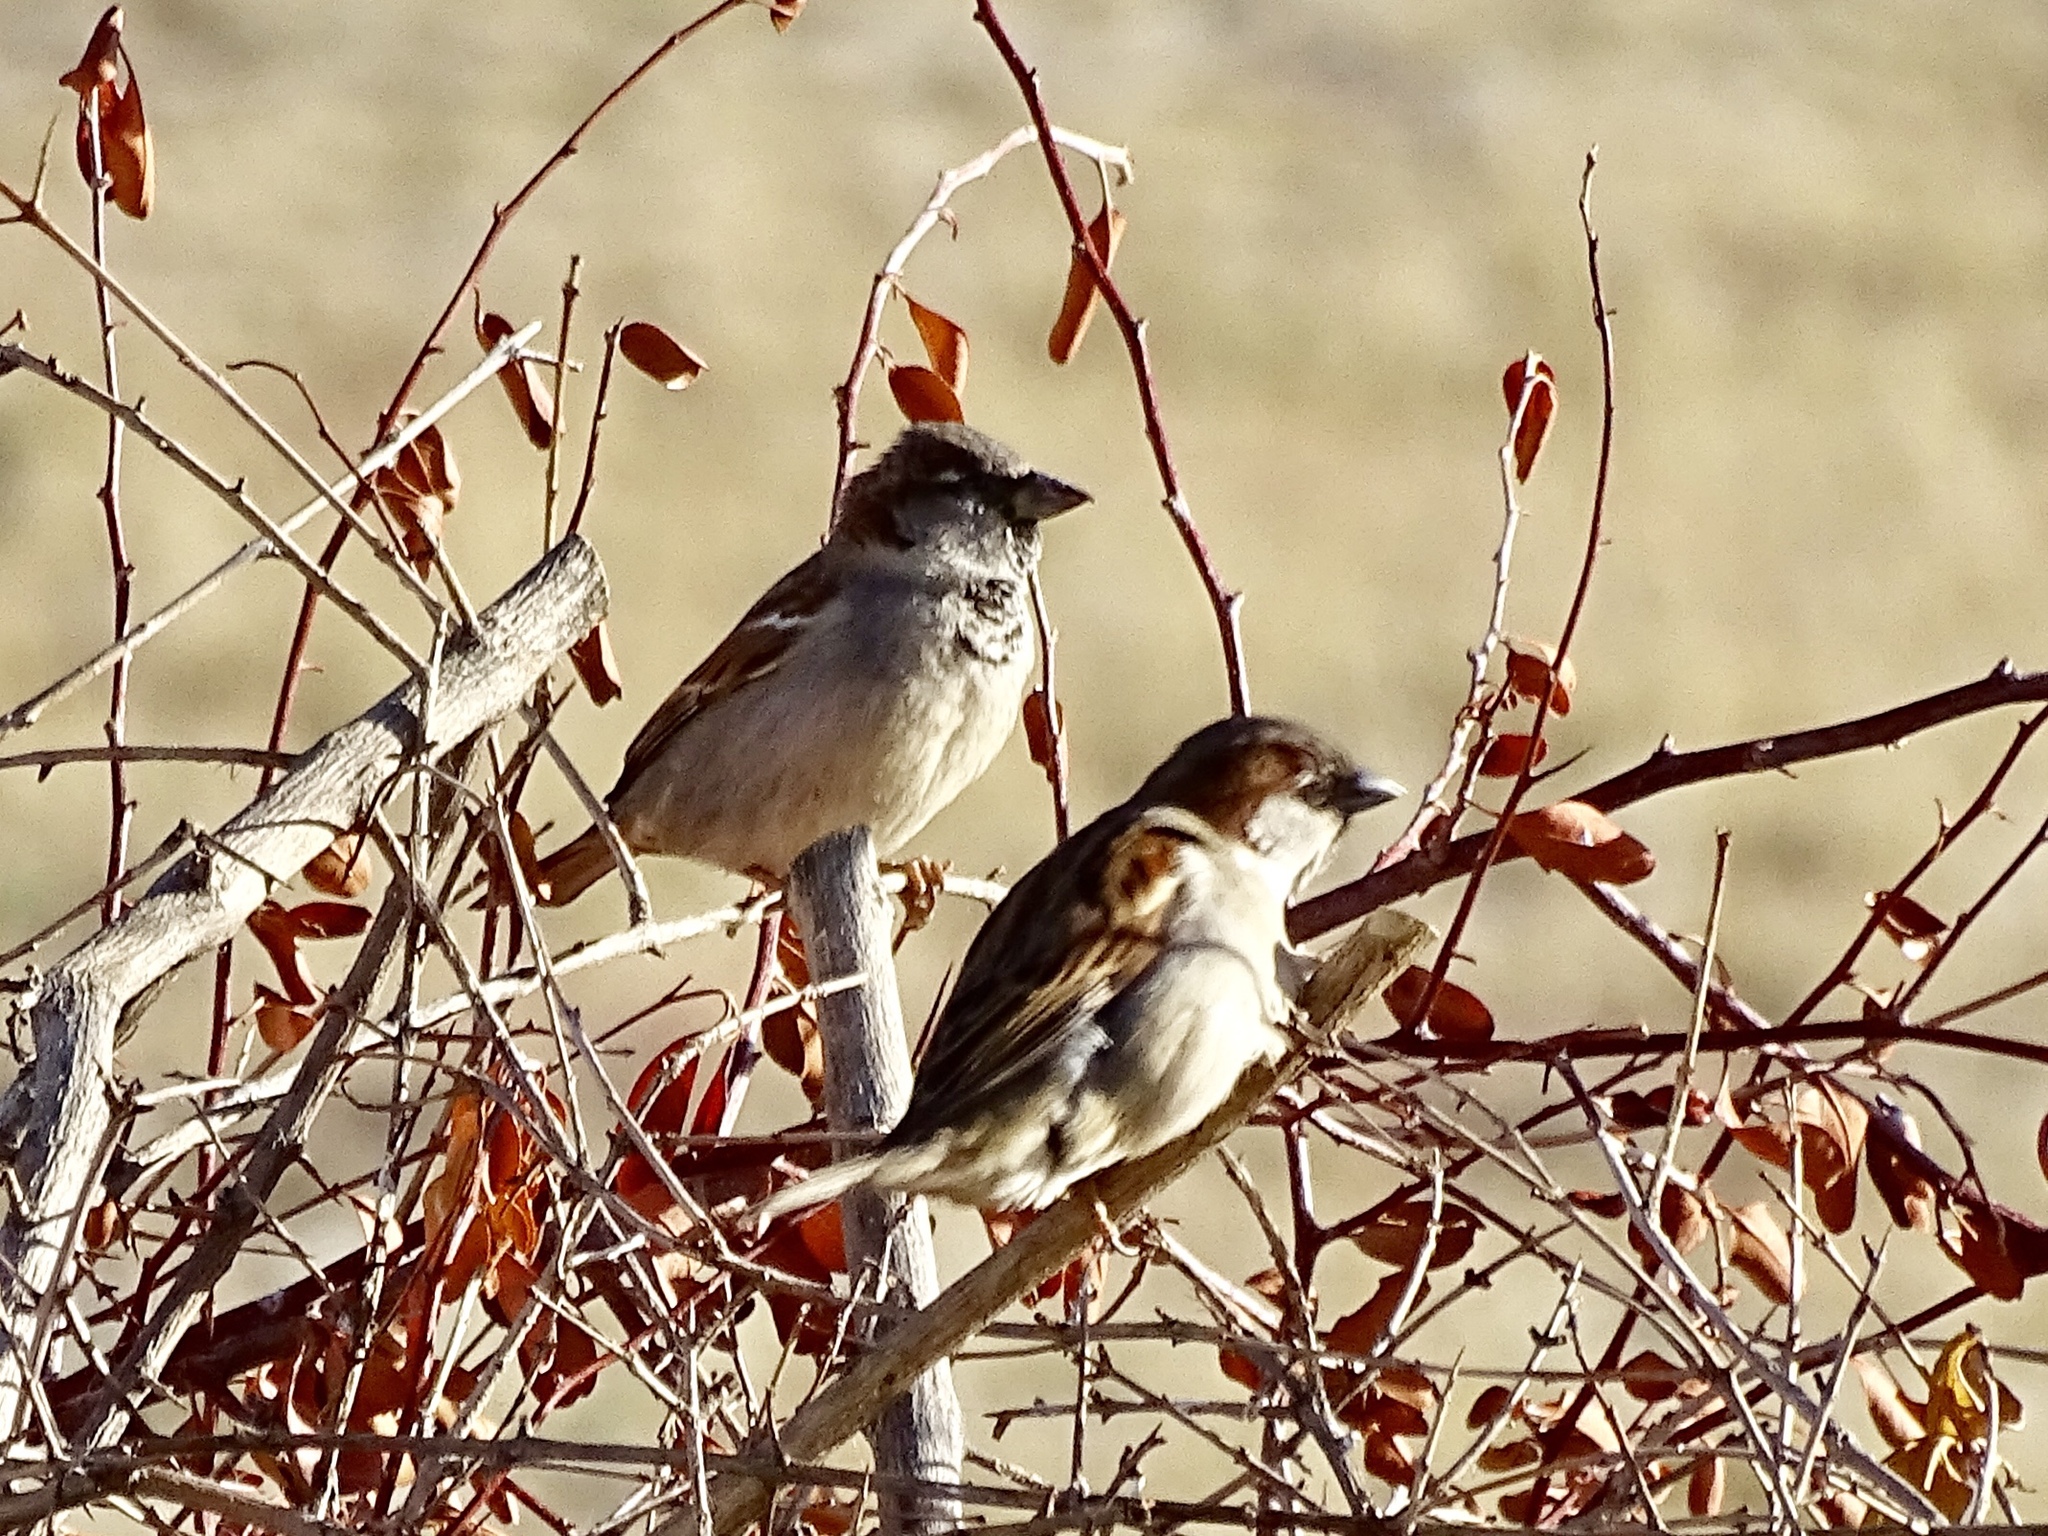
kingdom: Animalia
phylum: Chordata
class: Aves
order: Passeriformes
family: Passeridae
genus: Passer
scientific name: Passer domesticus
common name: House sparrow
